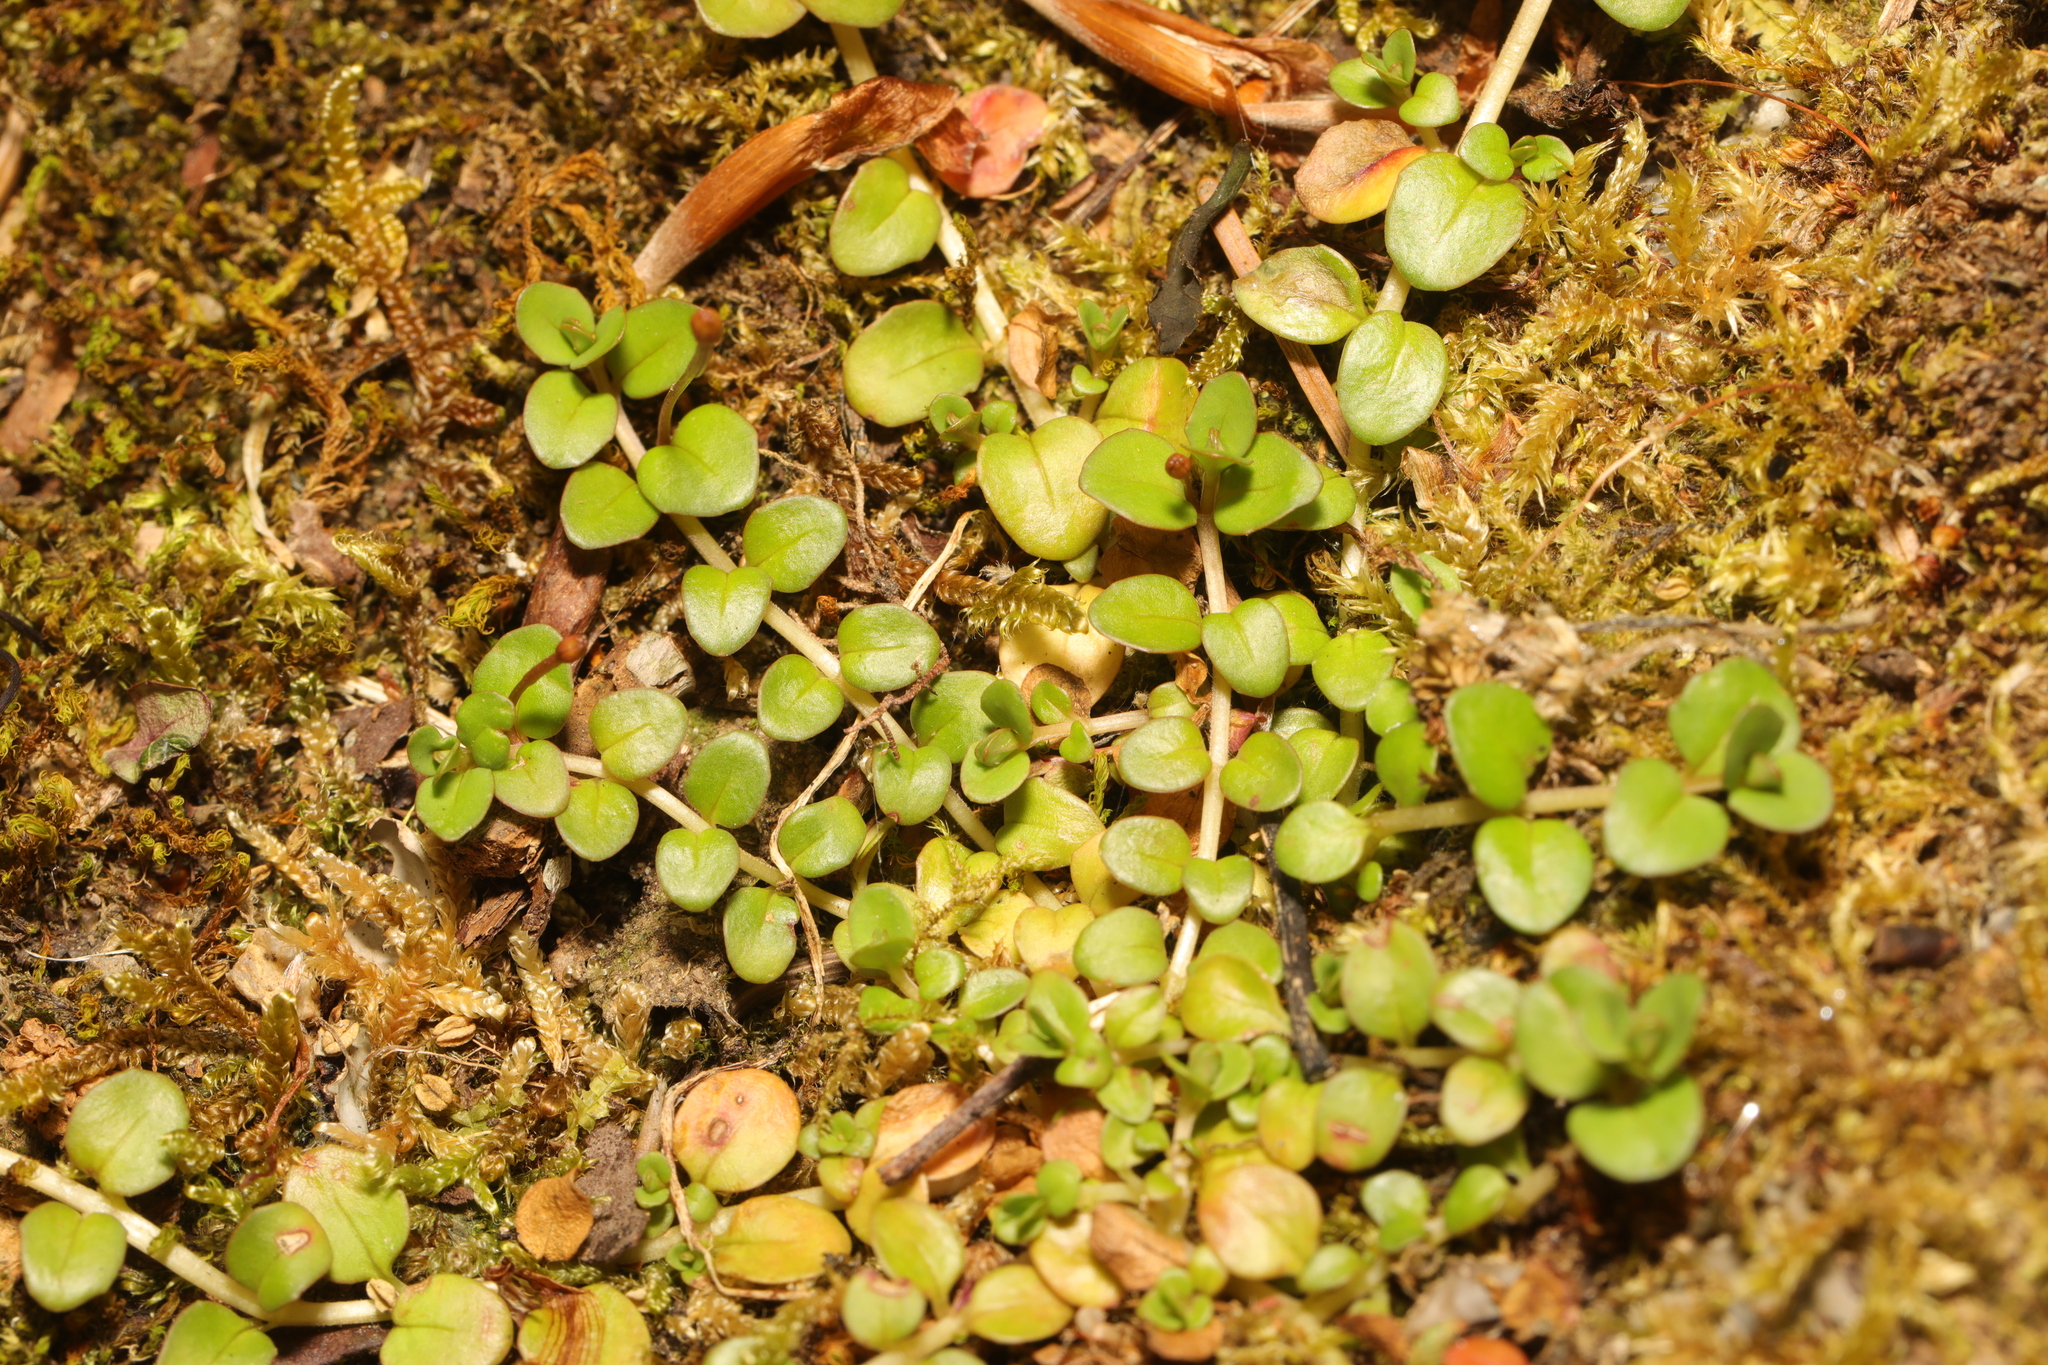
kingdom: Plantae
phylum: Tracheophyta
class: Magnoliopsida
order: Lamiales
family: Plantaginaceae
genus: Veronica
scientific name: Veronica serpyllifolia
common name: Thyme-leaved speedwell
